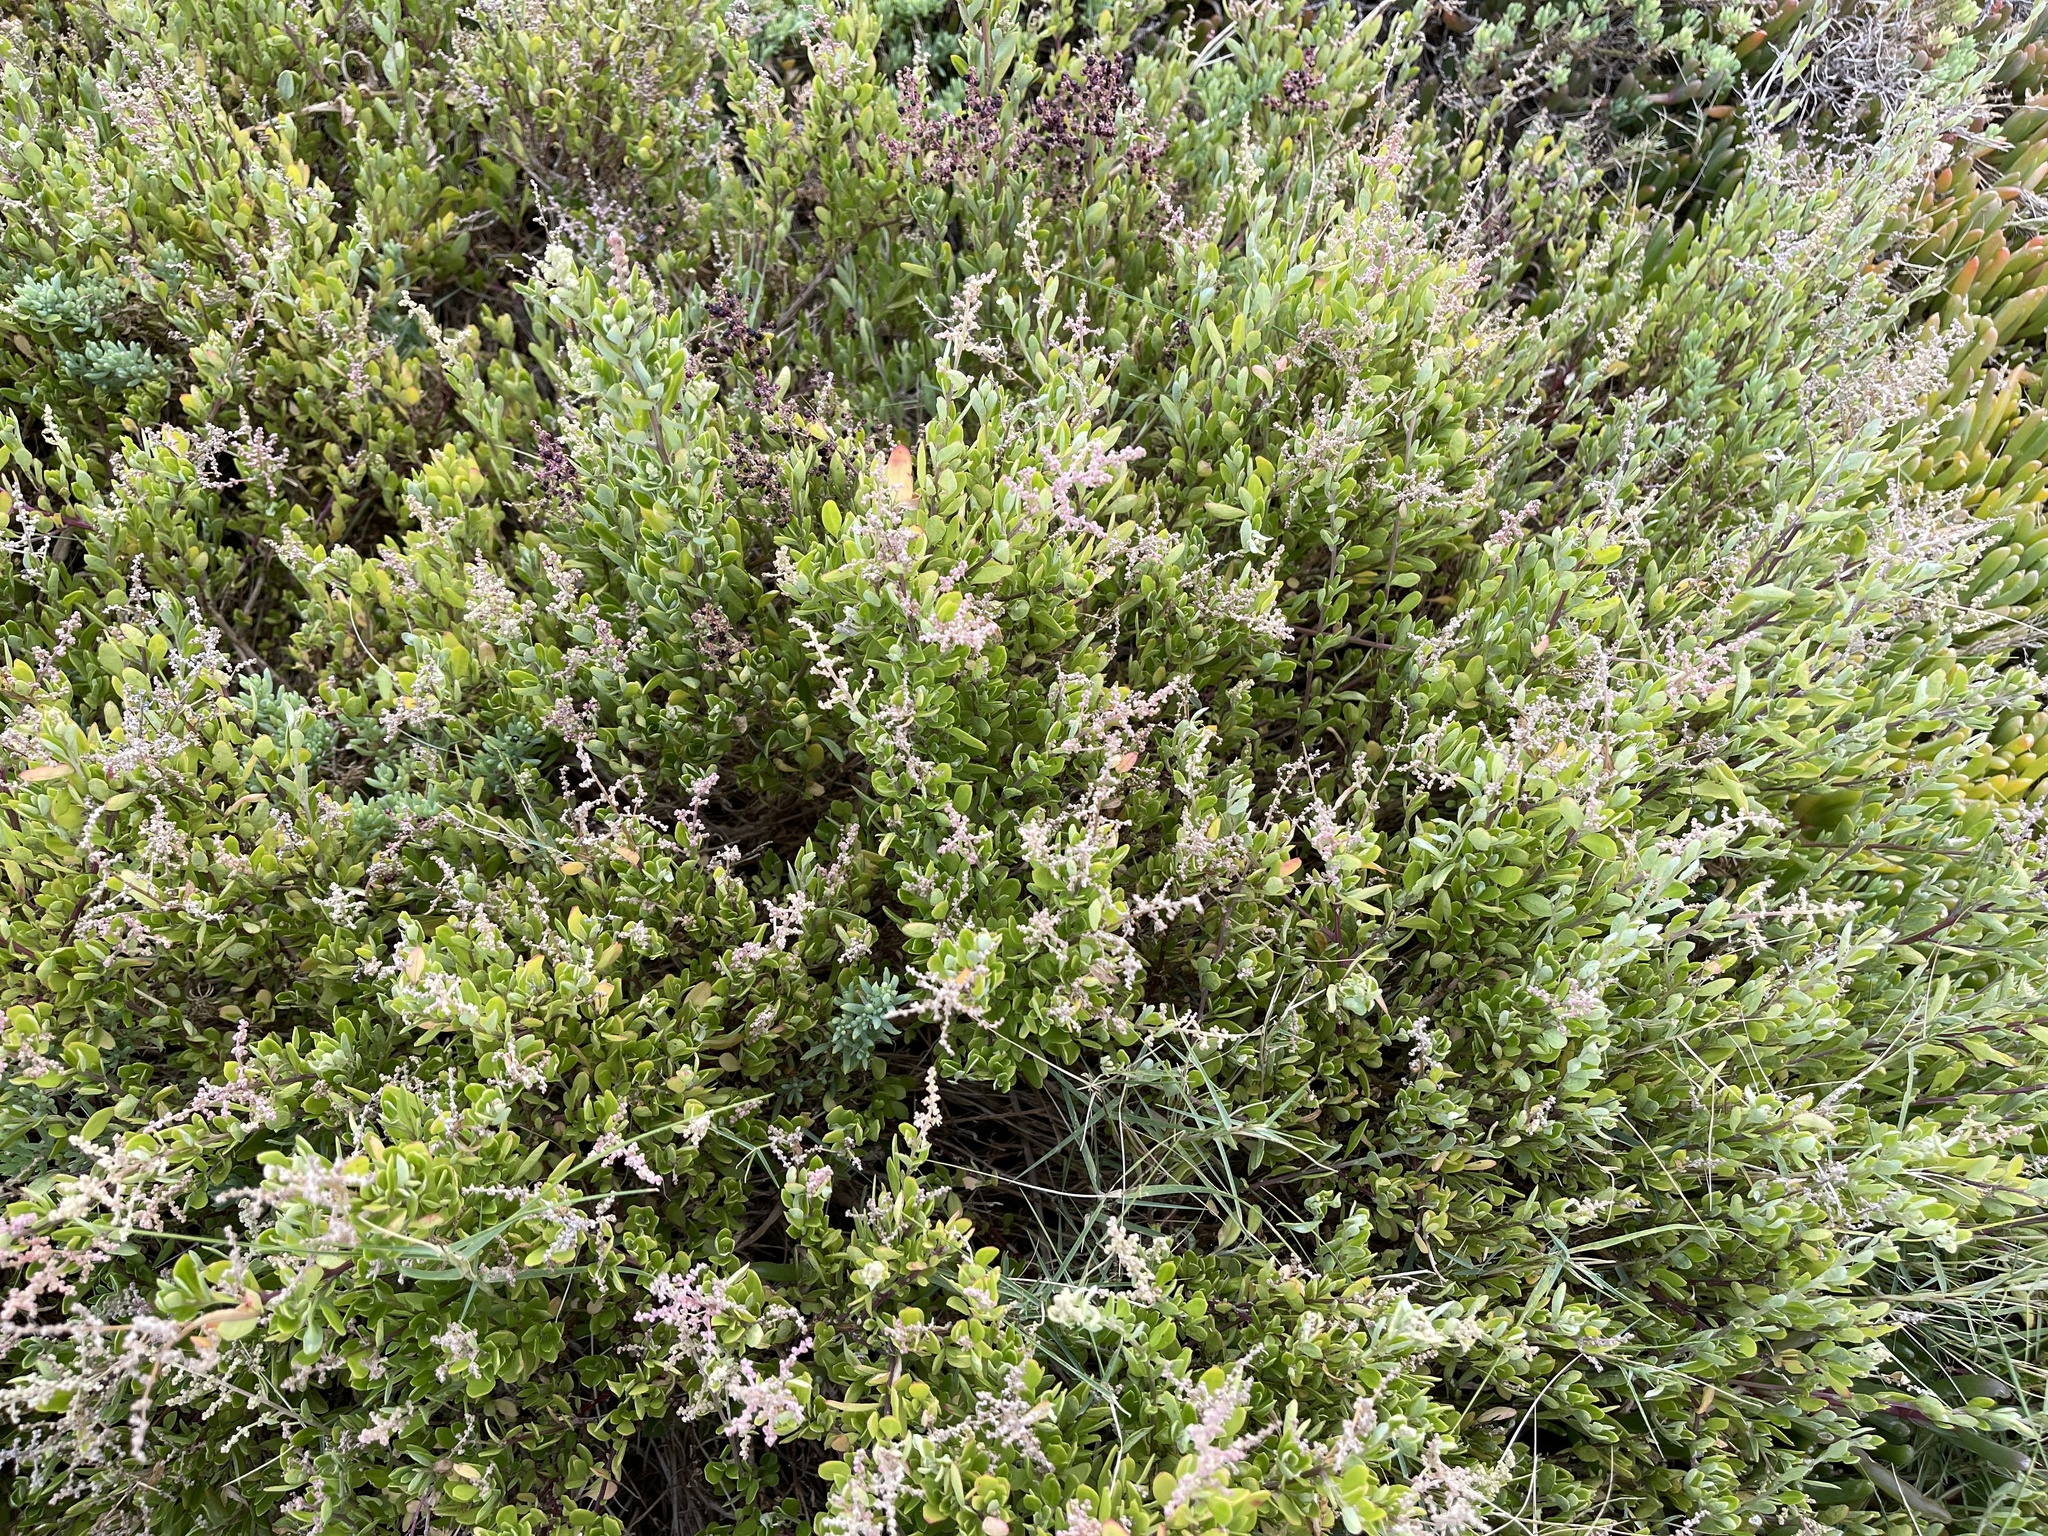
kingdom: Plantae
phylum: Tracheophyta
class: Magnoliopsida
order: Caryophyllales
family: Amaranthaceae
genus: Chenopodium
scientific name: Chenopodium candolleanum
